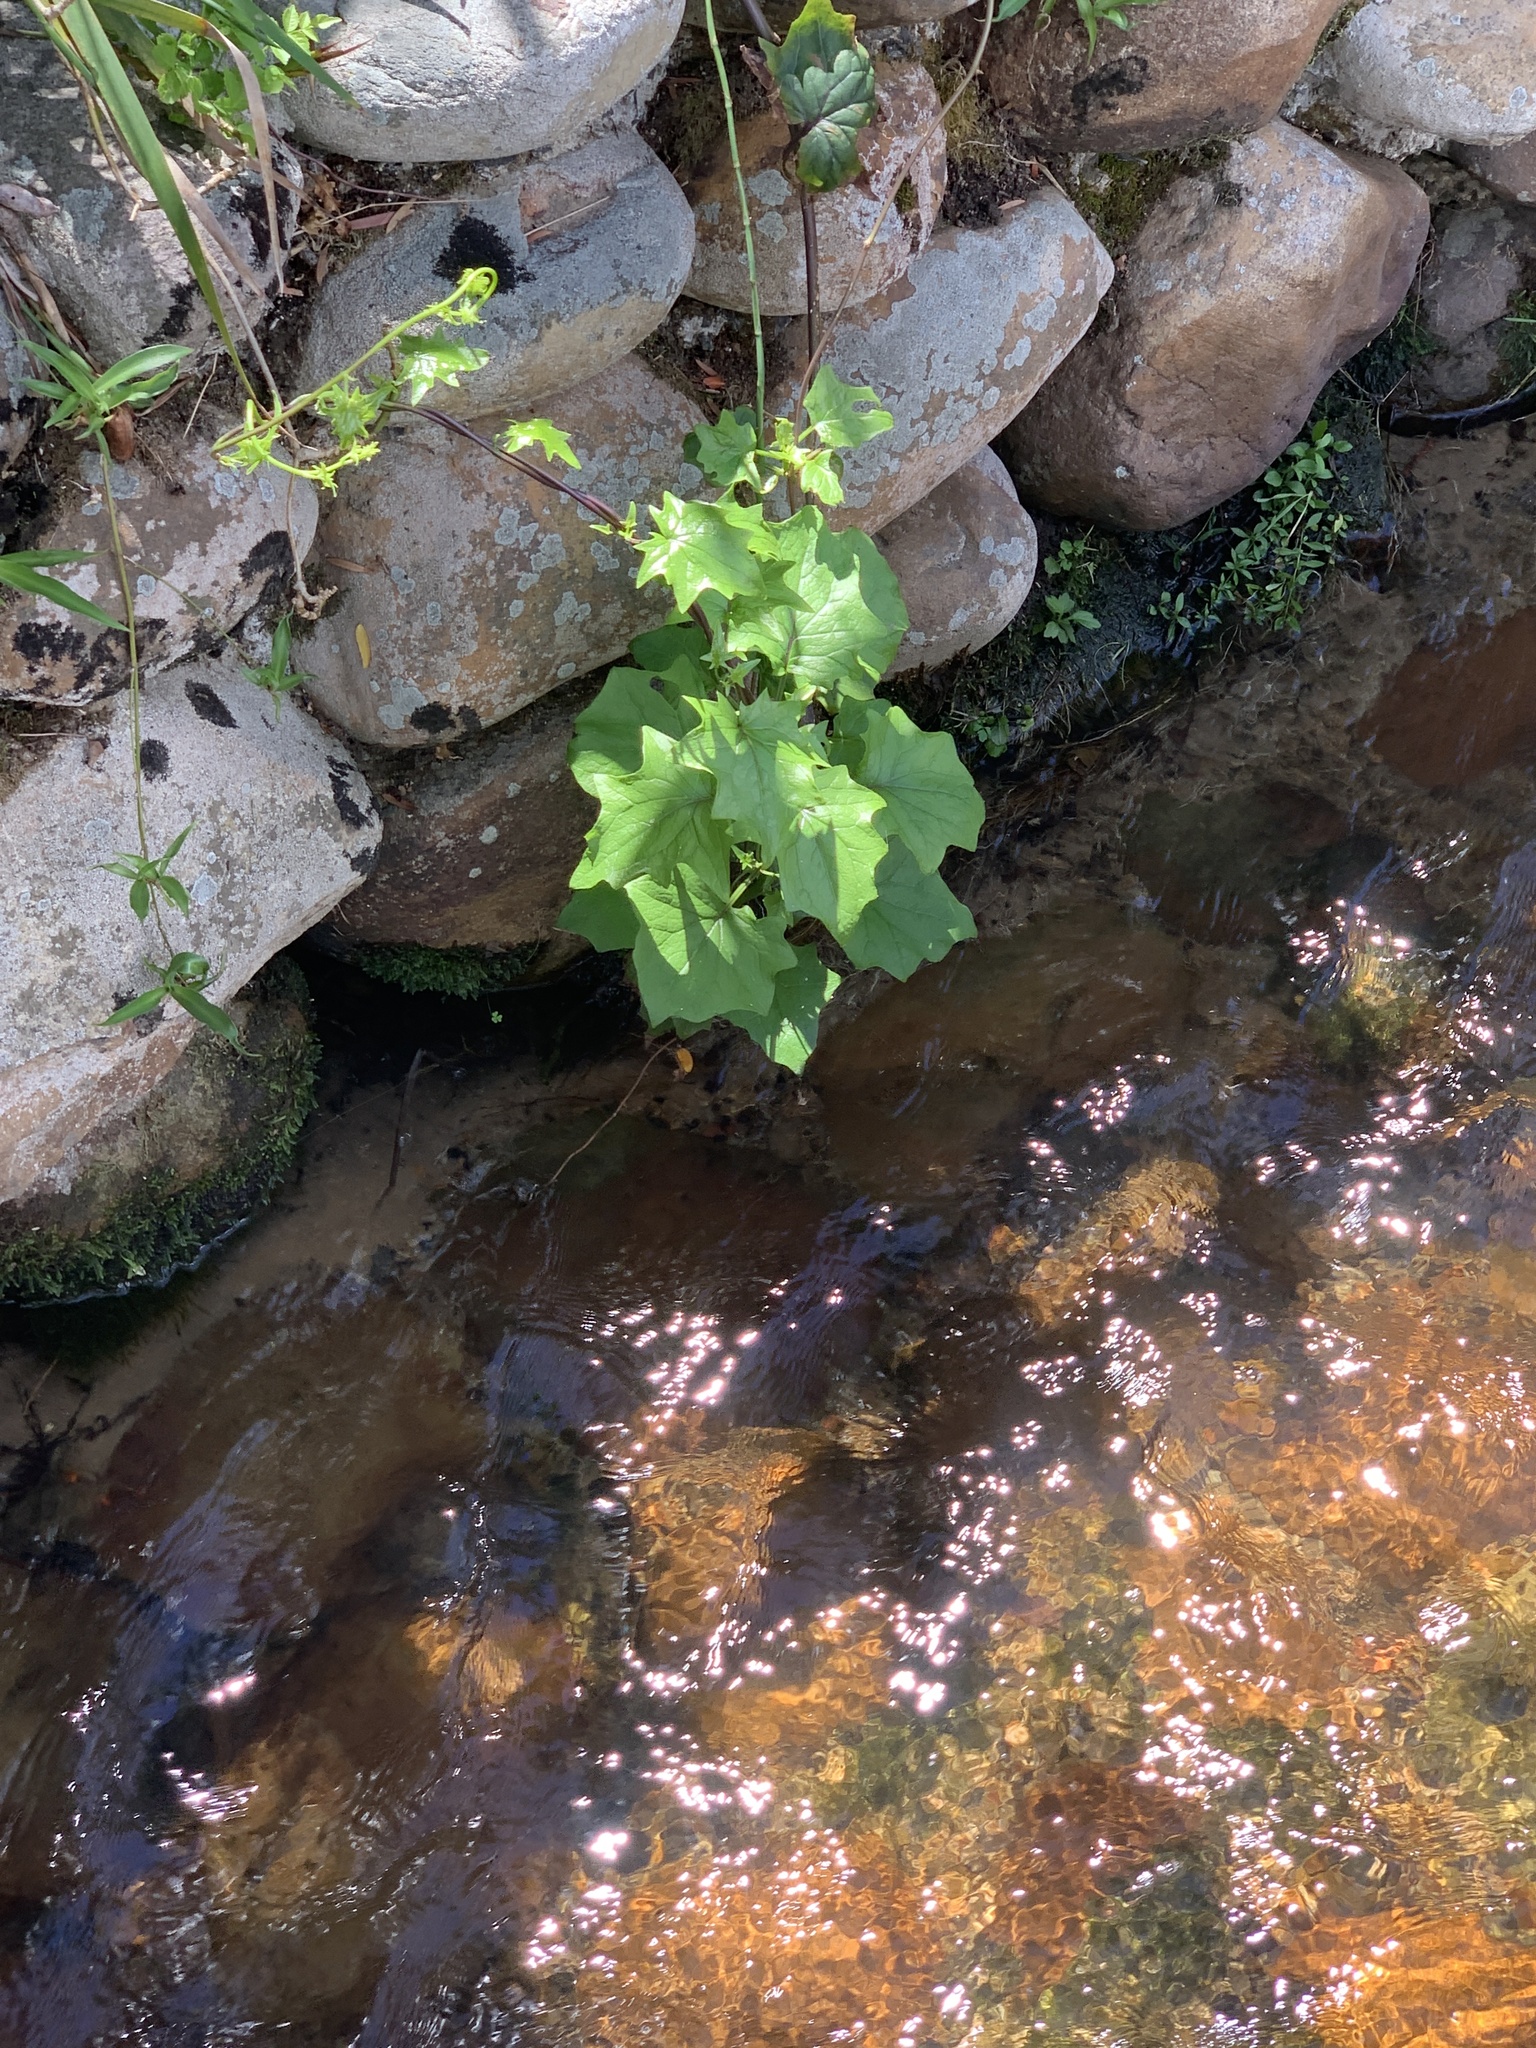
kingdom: Plantae
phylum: Tracheophyta
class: Magnoliopsida
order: Asterales
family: Asteraceae
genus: Senecio
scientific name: Senecio tamoides
